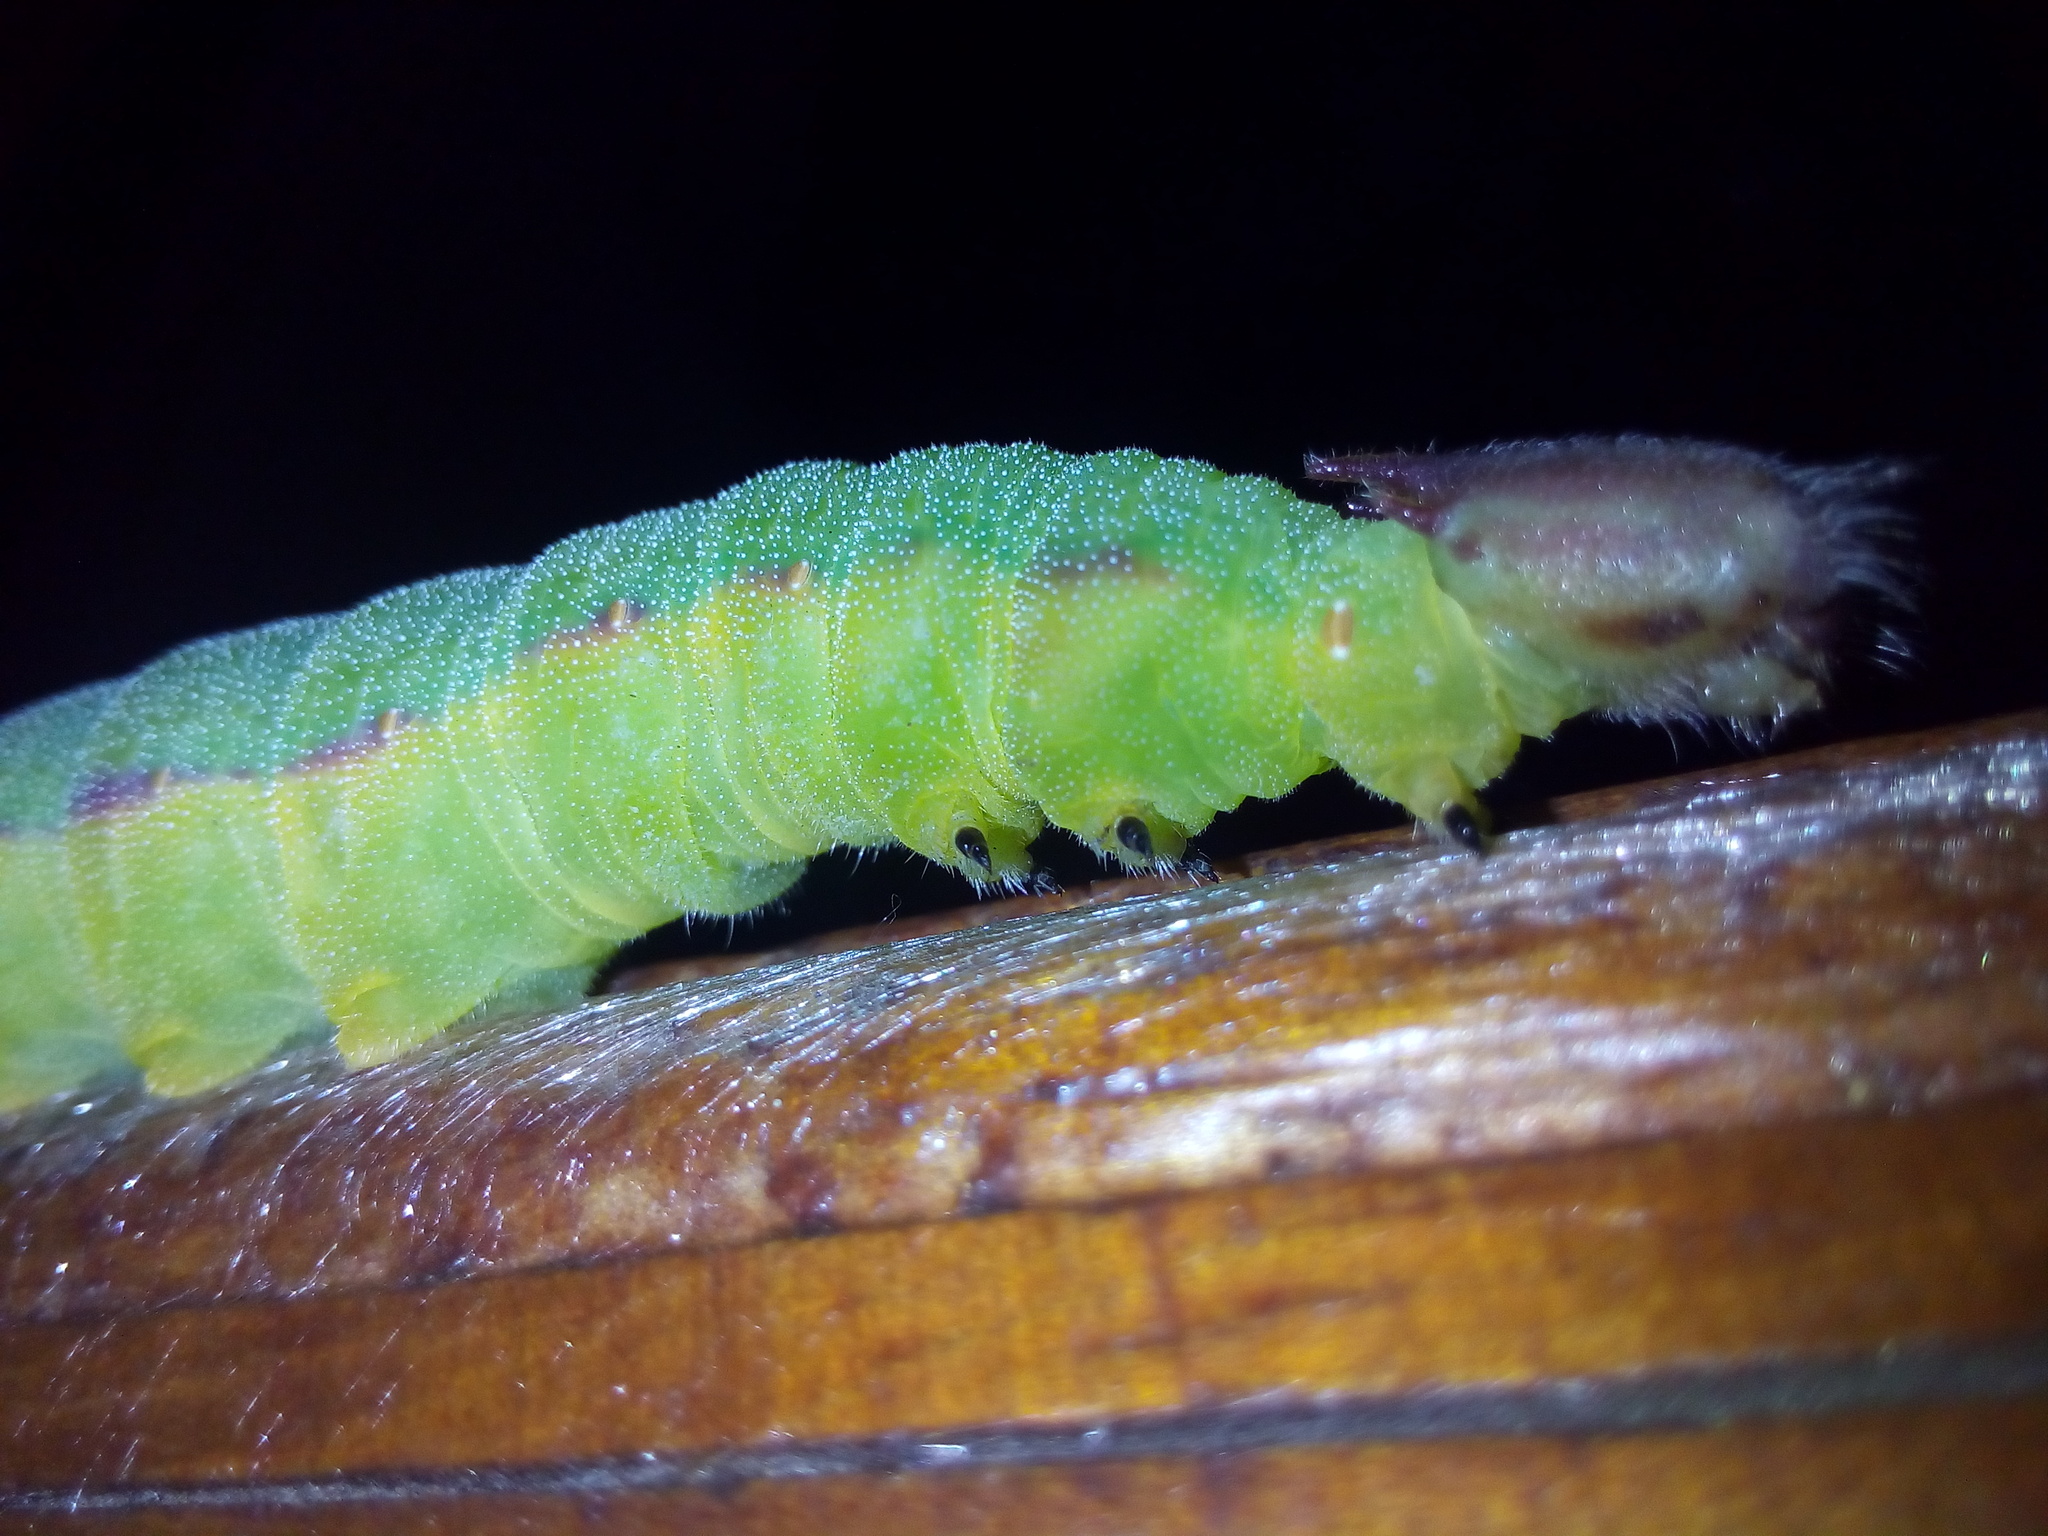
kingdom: Animalia
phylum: Arthropoda
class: Insecta
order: Lepidoptera
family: Nymphalidae
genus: Opsiphanes
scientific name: Opsiphanes invirae
